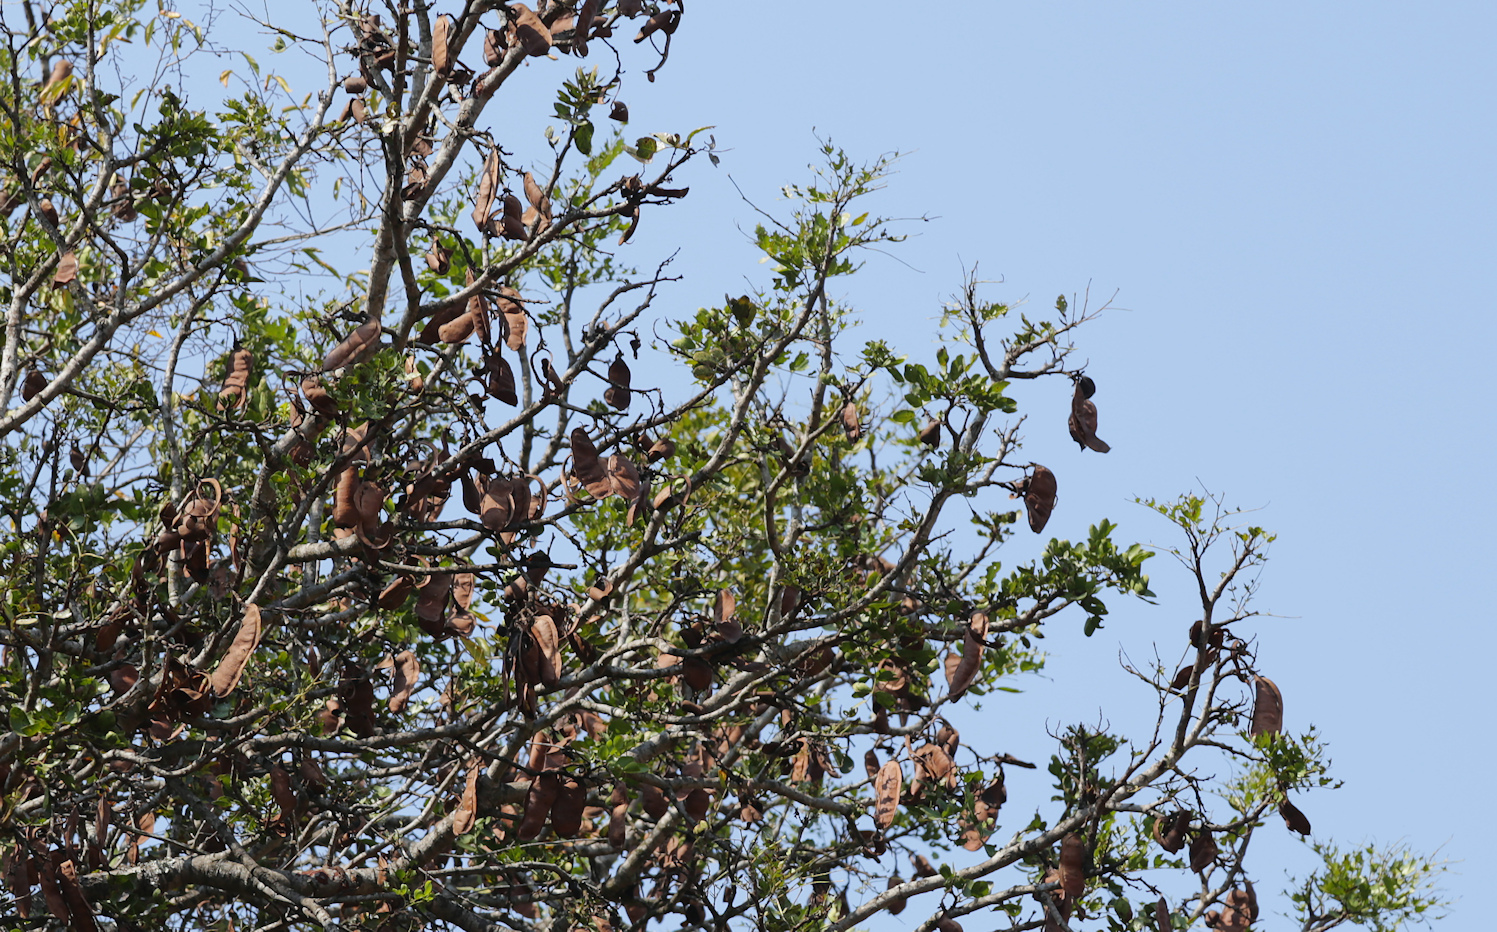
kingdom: Plantae
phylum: Tracheophyta
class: Magnoliopsida
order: Fabales
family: Fabaceae
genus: Schotia
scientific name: Schotia brachypetala
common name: Weeping boer-bean
